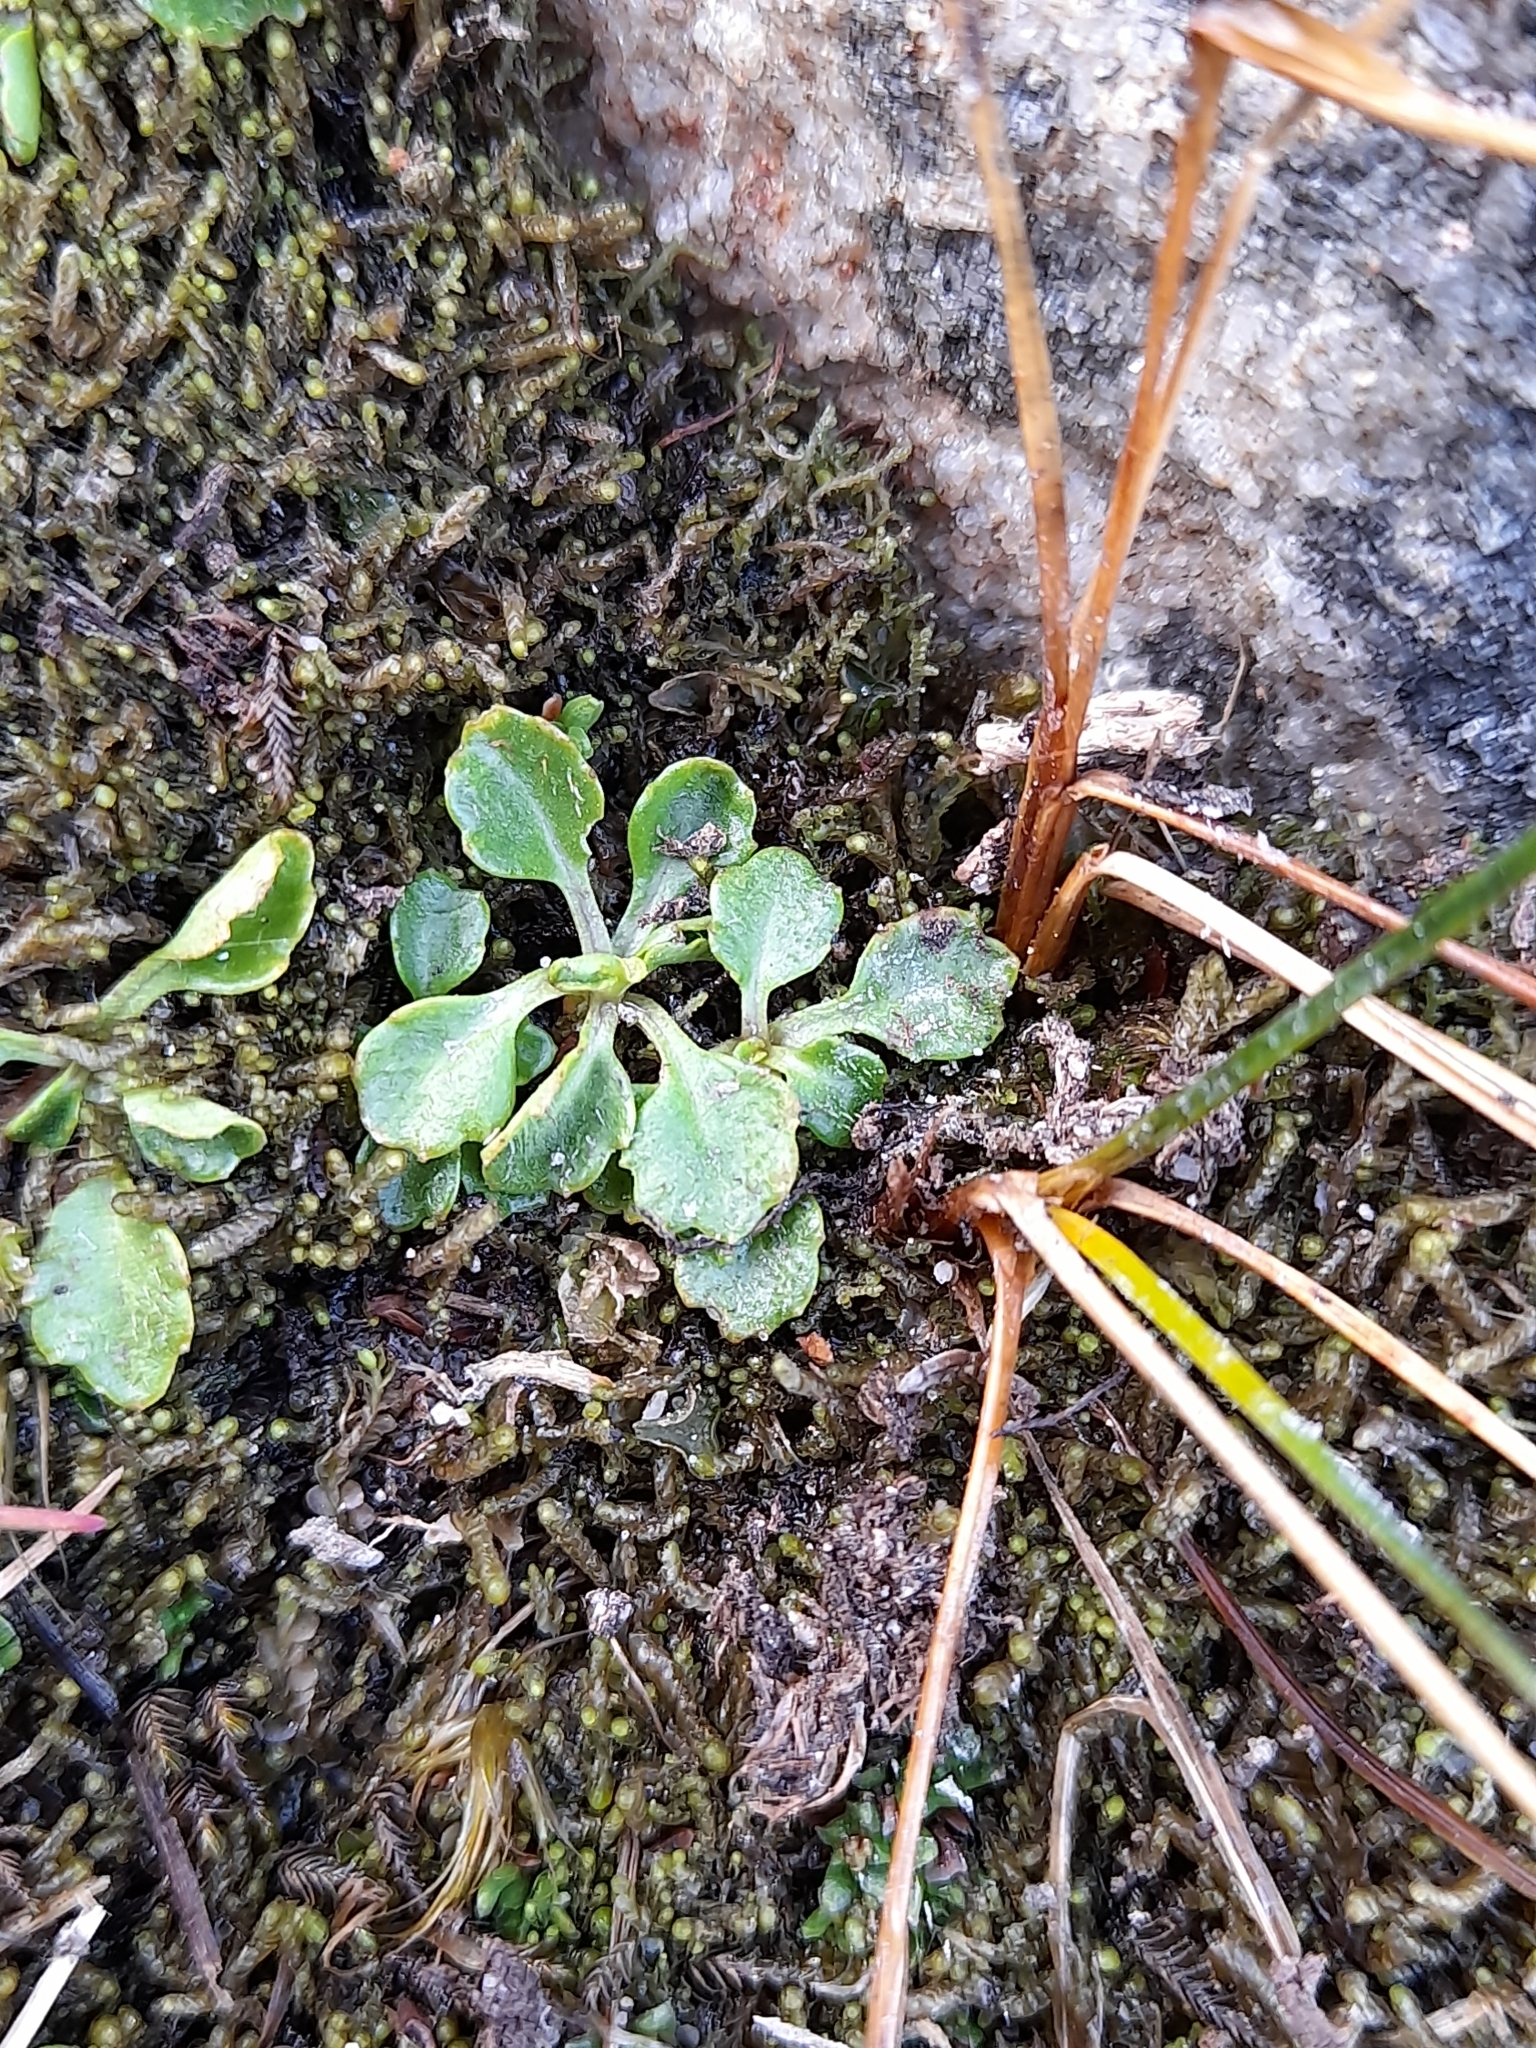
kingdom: Plantae
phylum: Tracheophyta
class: Magnoliopsida
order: Asterales
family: Asteraceae
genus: Lagenophora
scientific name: Lagenophora nudicaulis
